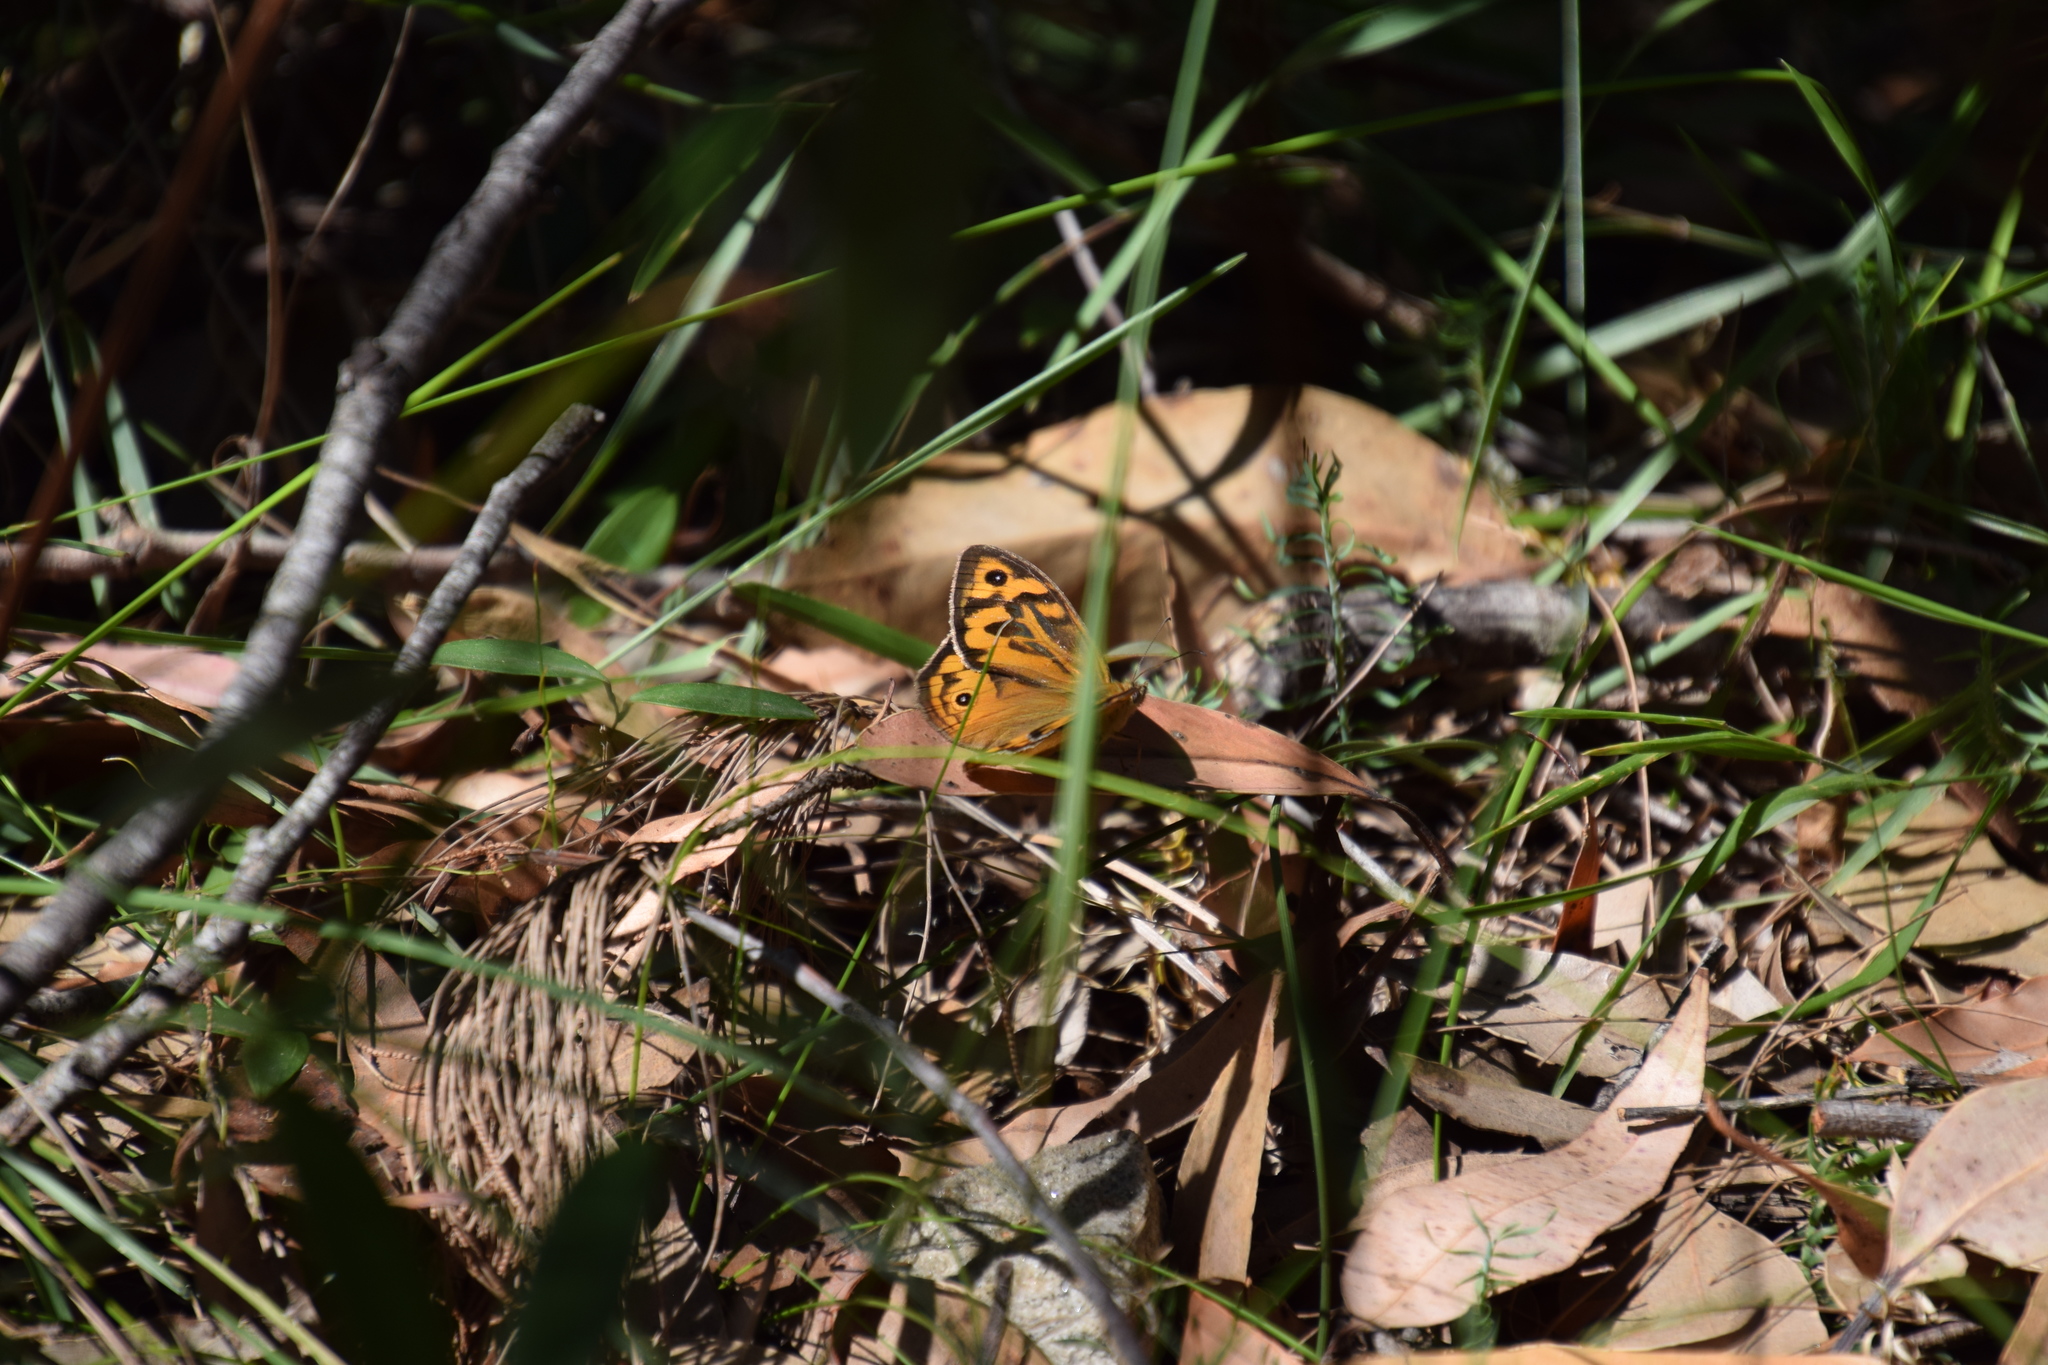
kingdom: Animalia
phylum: Arthropoda
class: Insecta
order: Lepidoptera
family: Nymphalidae
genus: Heteronympha
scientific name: Heteronympha merope
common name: Common brown
